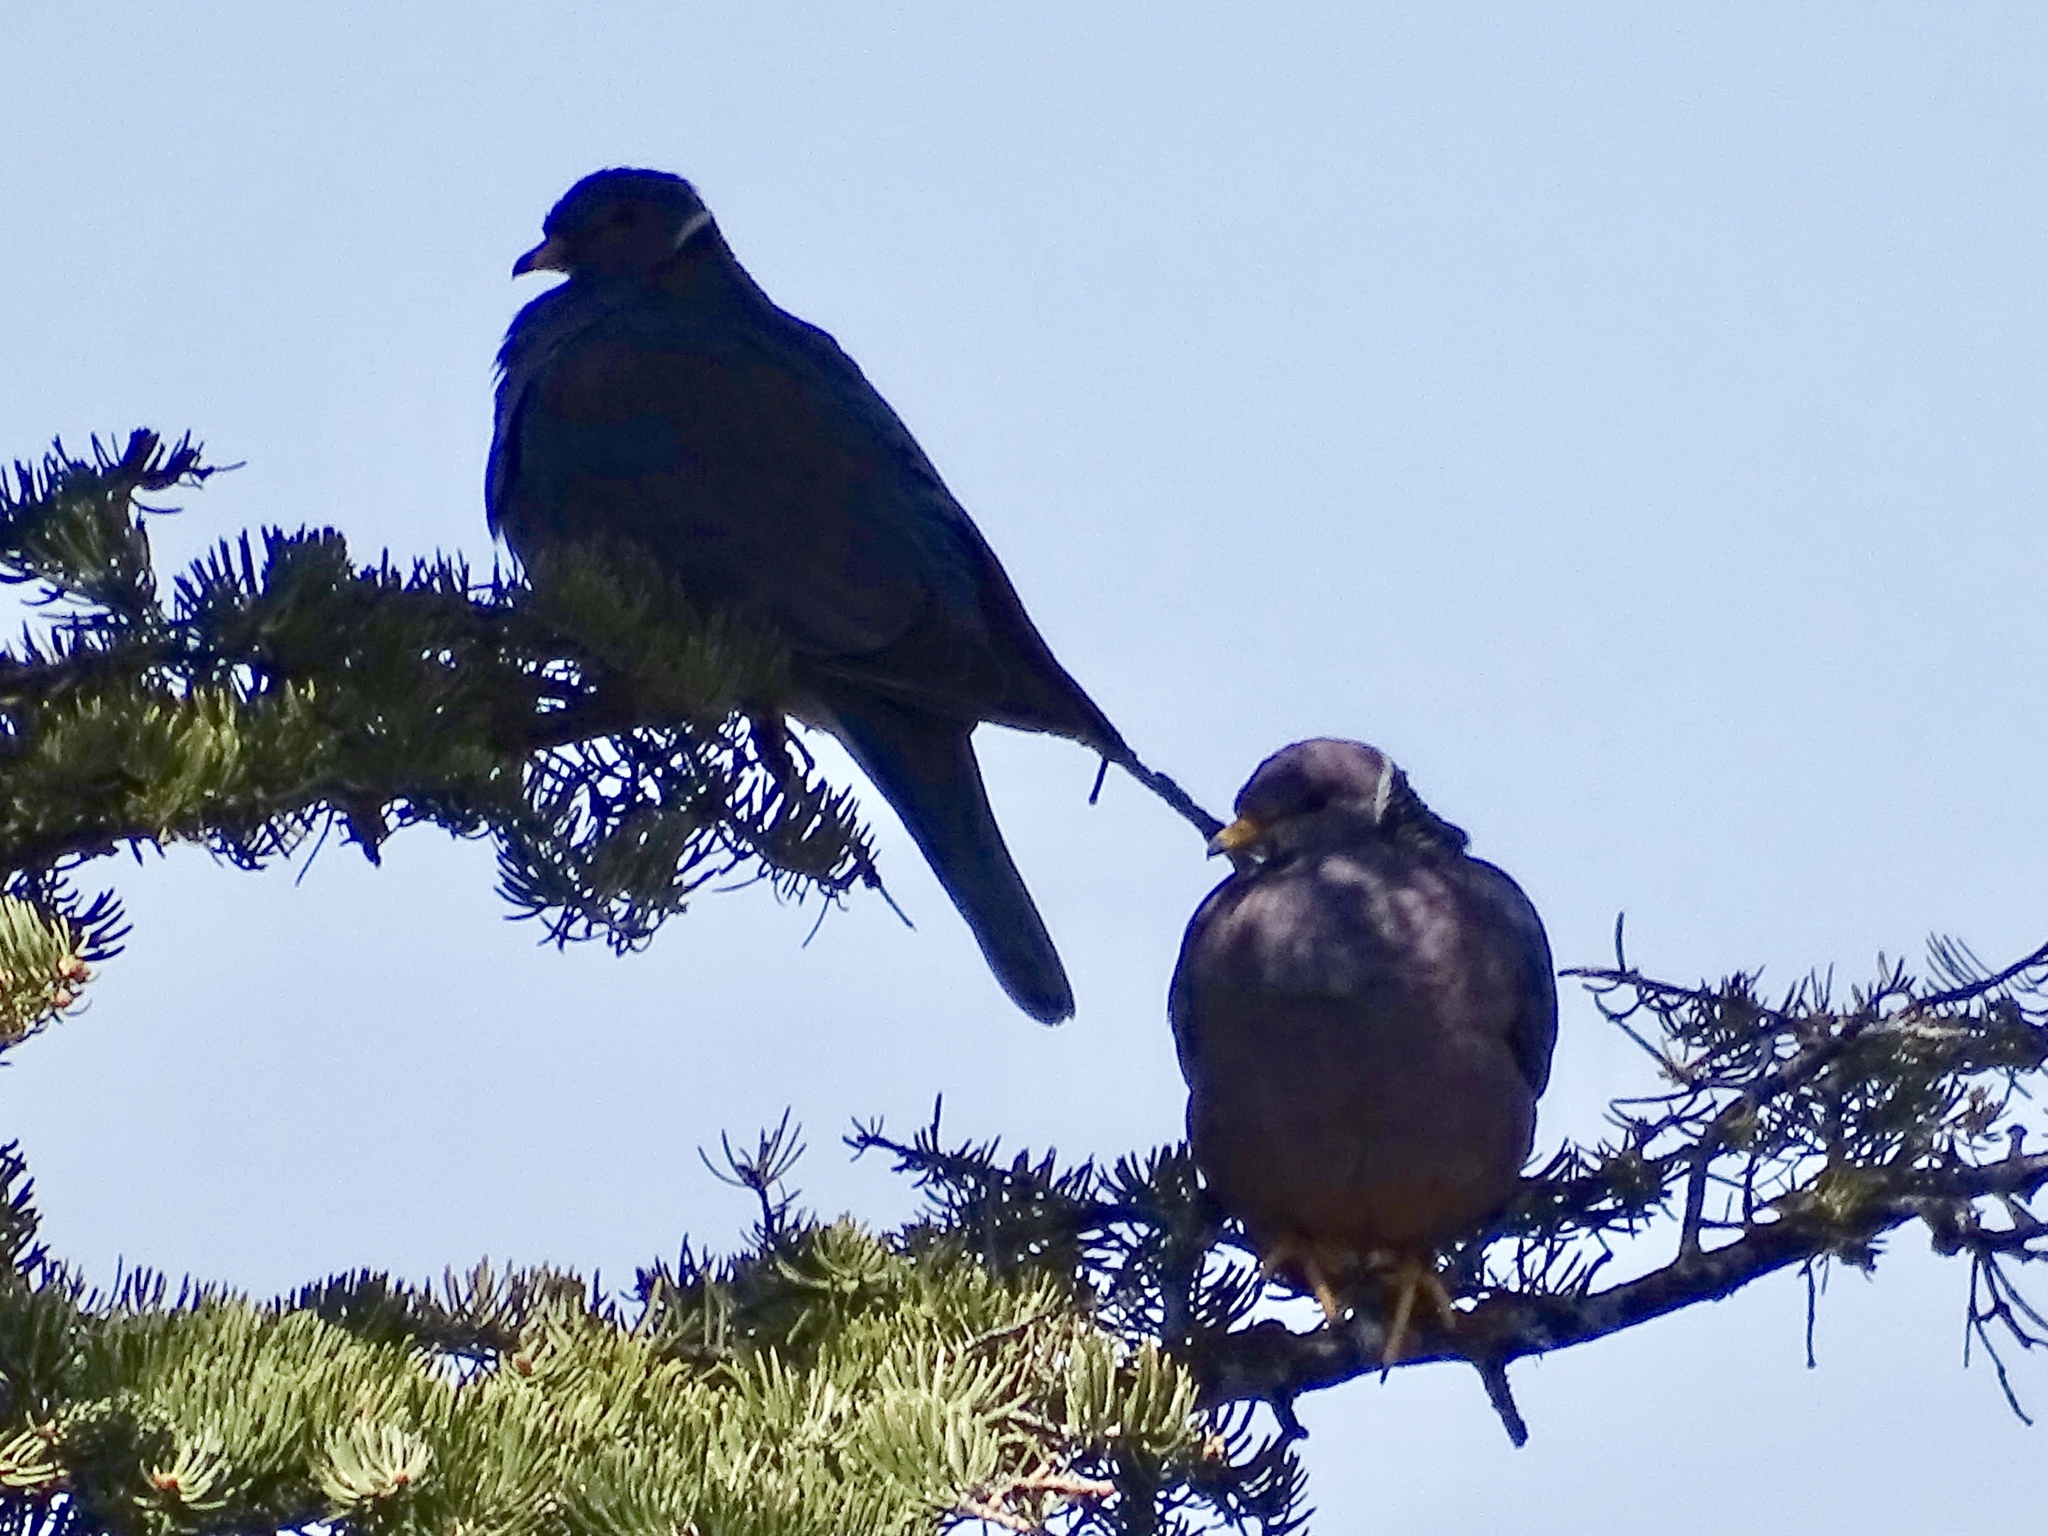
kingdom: Animalia
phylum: Chordata
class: Aves
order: Columbiformes
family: Columbidae
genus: Patagioenas
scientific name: Patagioenas fasciata
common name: Band-tailed pigeon
